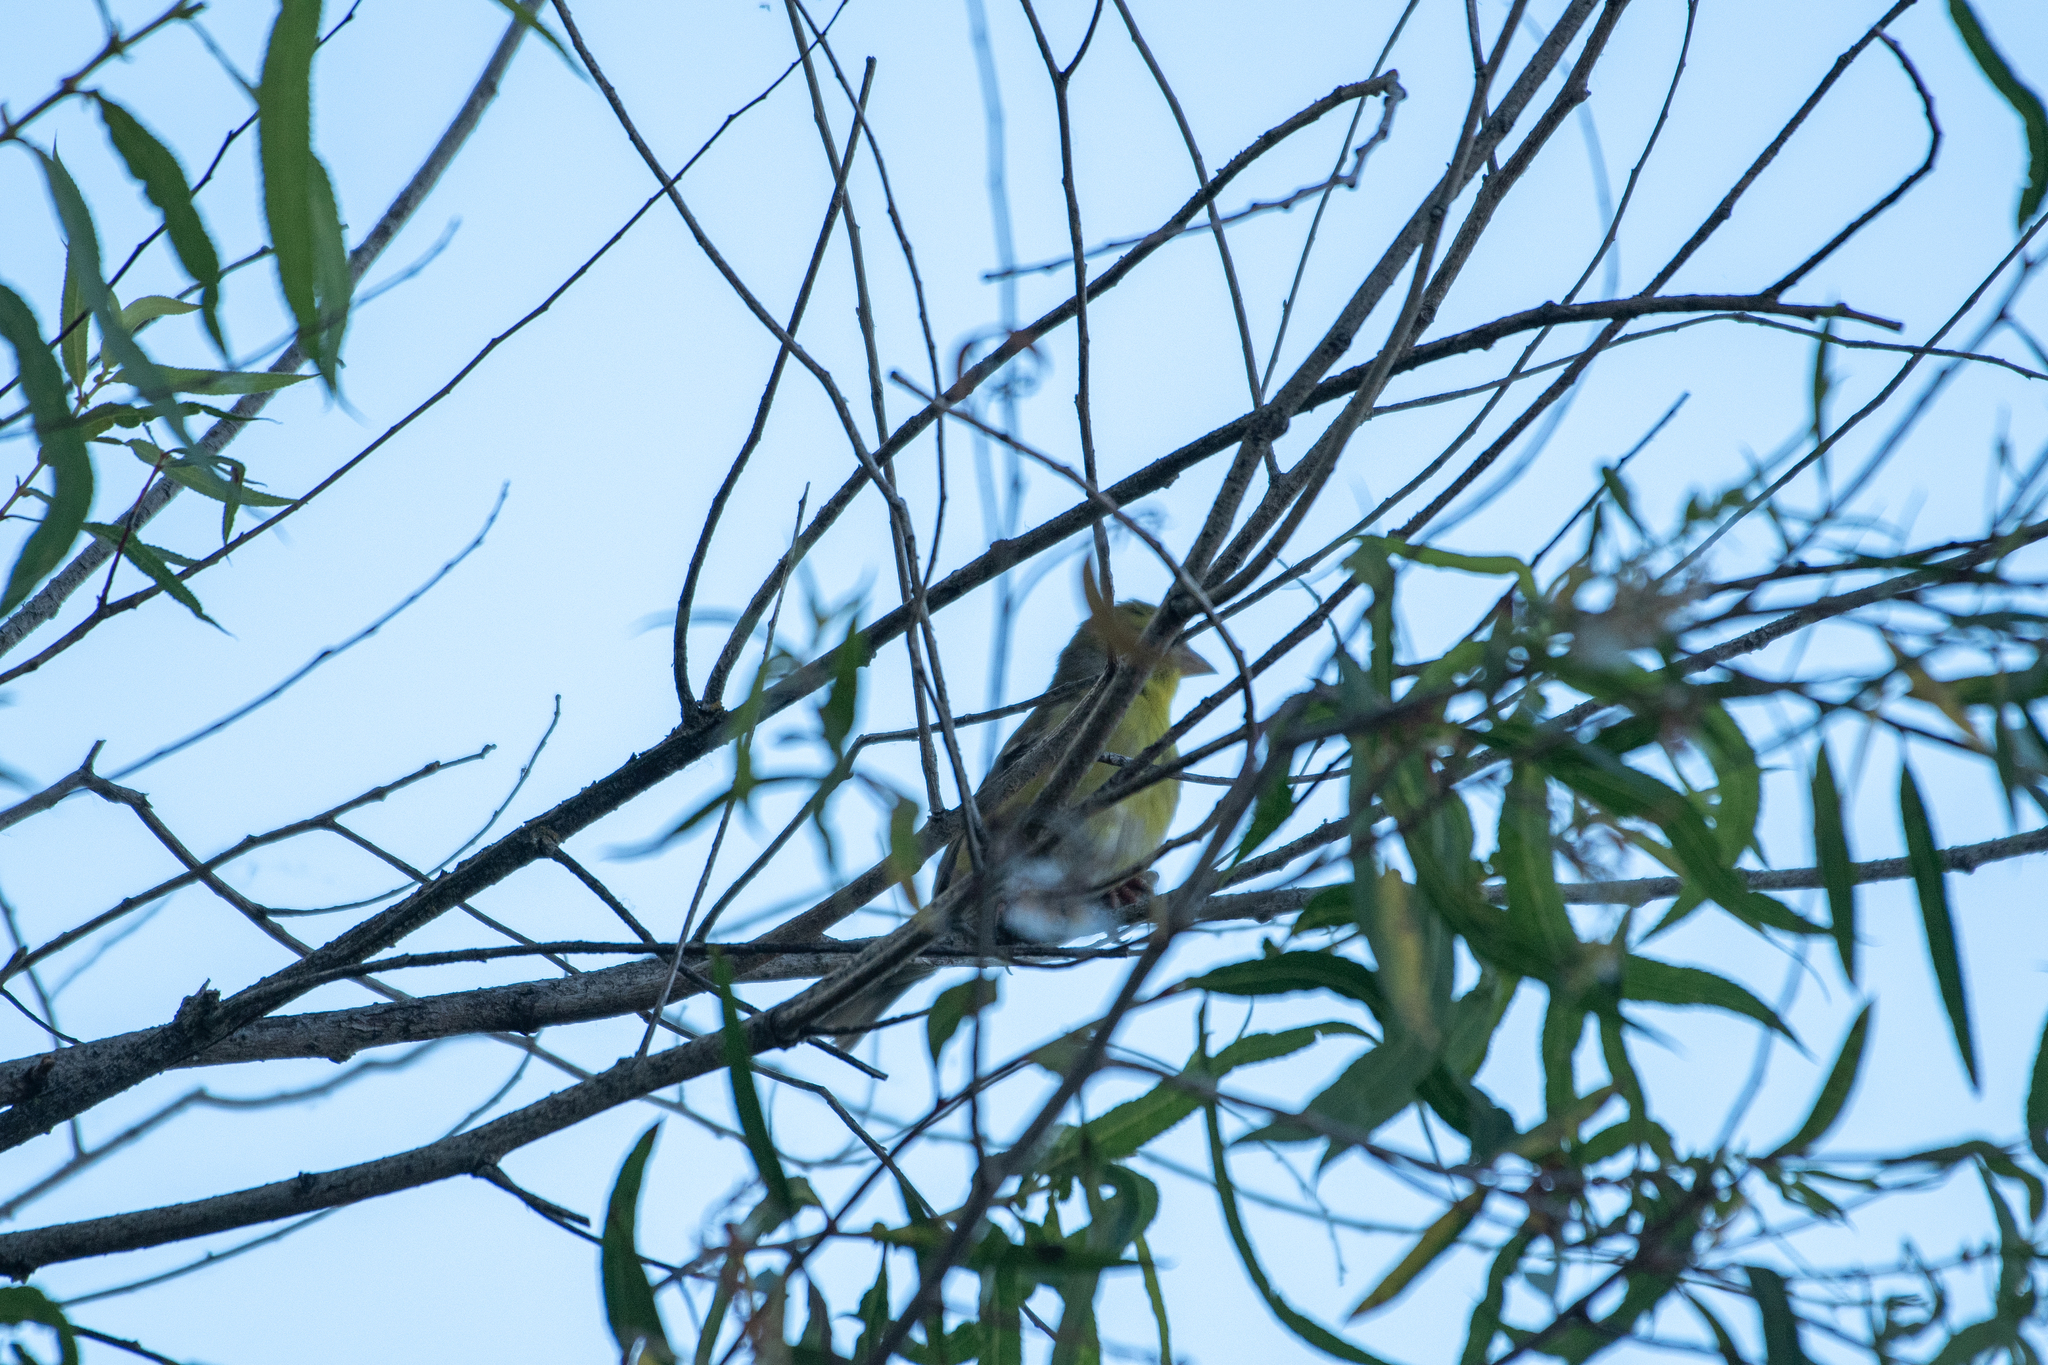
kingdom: Animalia
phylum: Chordata
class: Aves
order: Passeriformes
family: Fringillidae
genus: Spinus
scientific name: Spinus psaltria
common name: Lesser goldfinch
